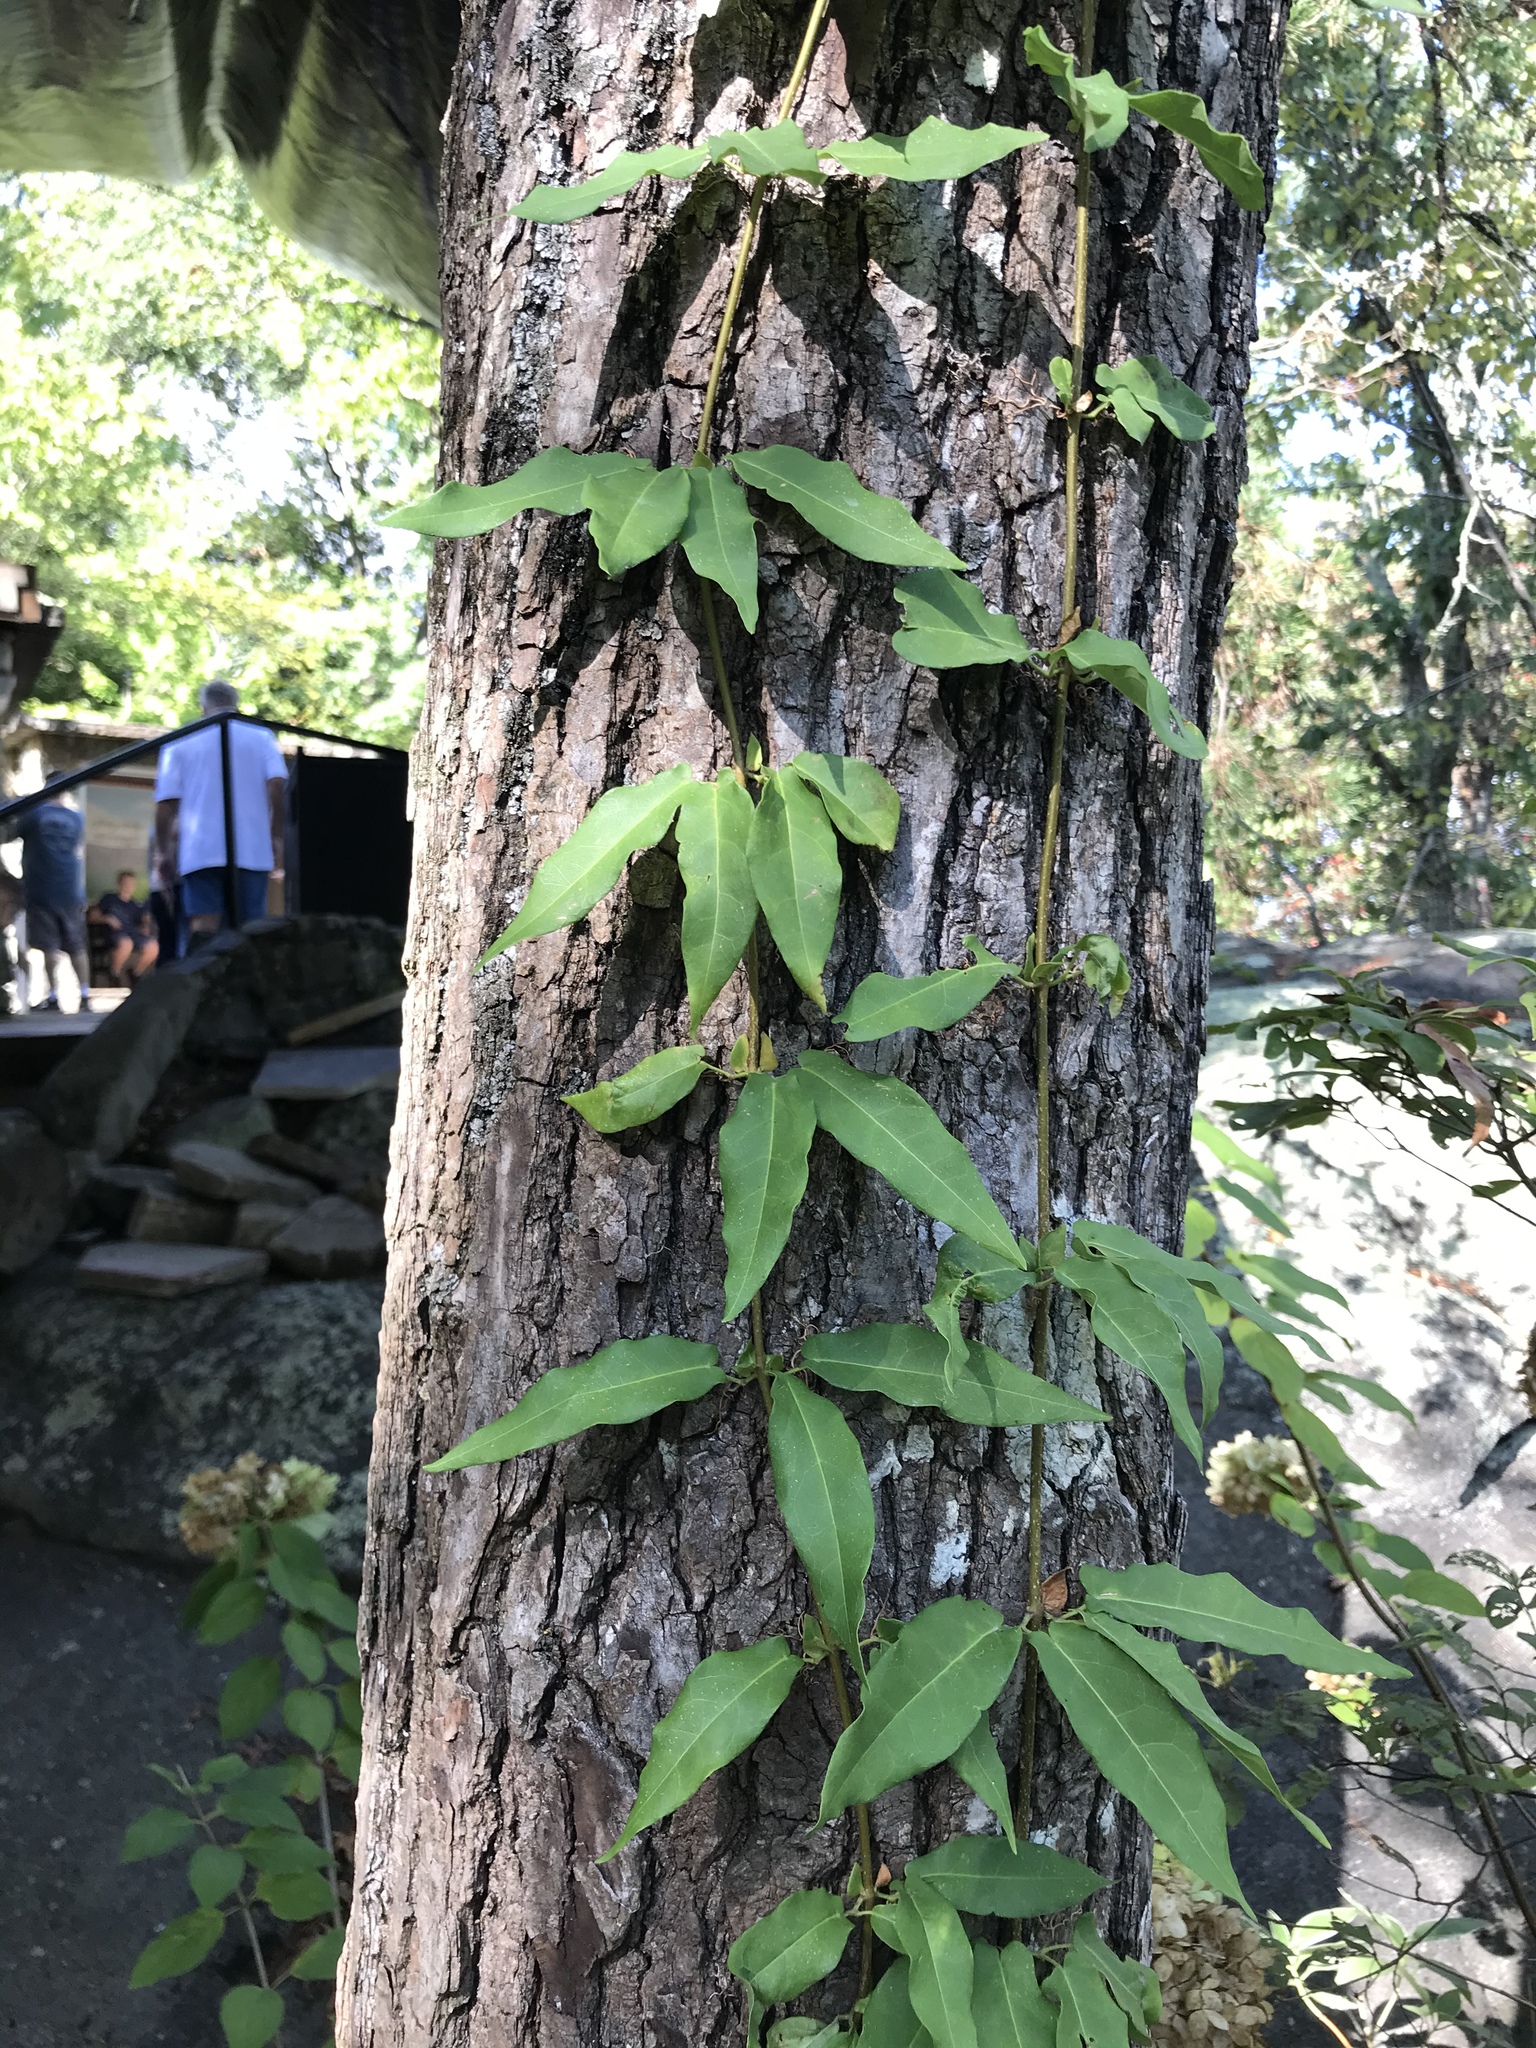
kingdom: Plantae
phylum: Tracheophyta
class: Magnoliopsida
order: Lamiales
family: Bignoniaceae
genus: Bignonia
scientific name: Bignonia capreolata
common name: Crossvine
